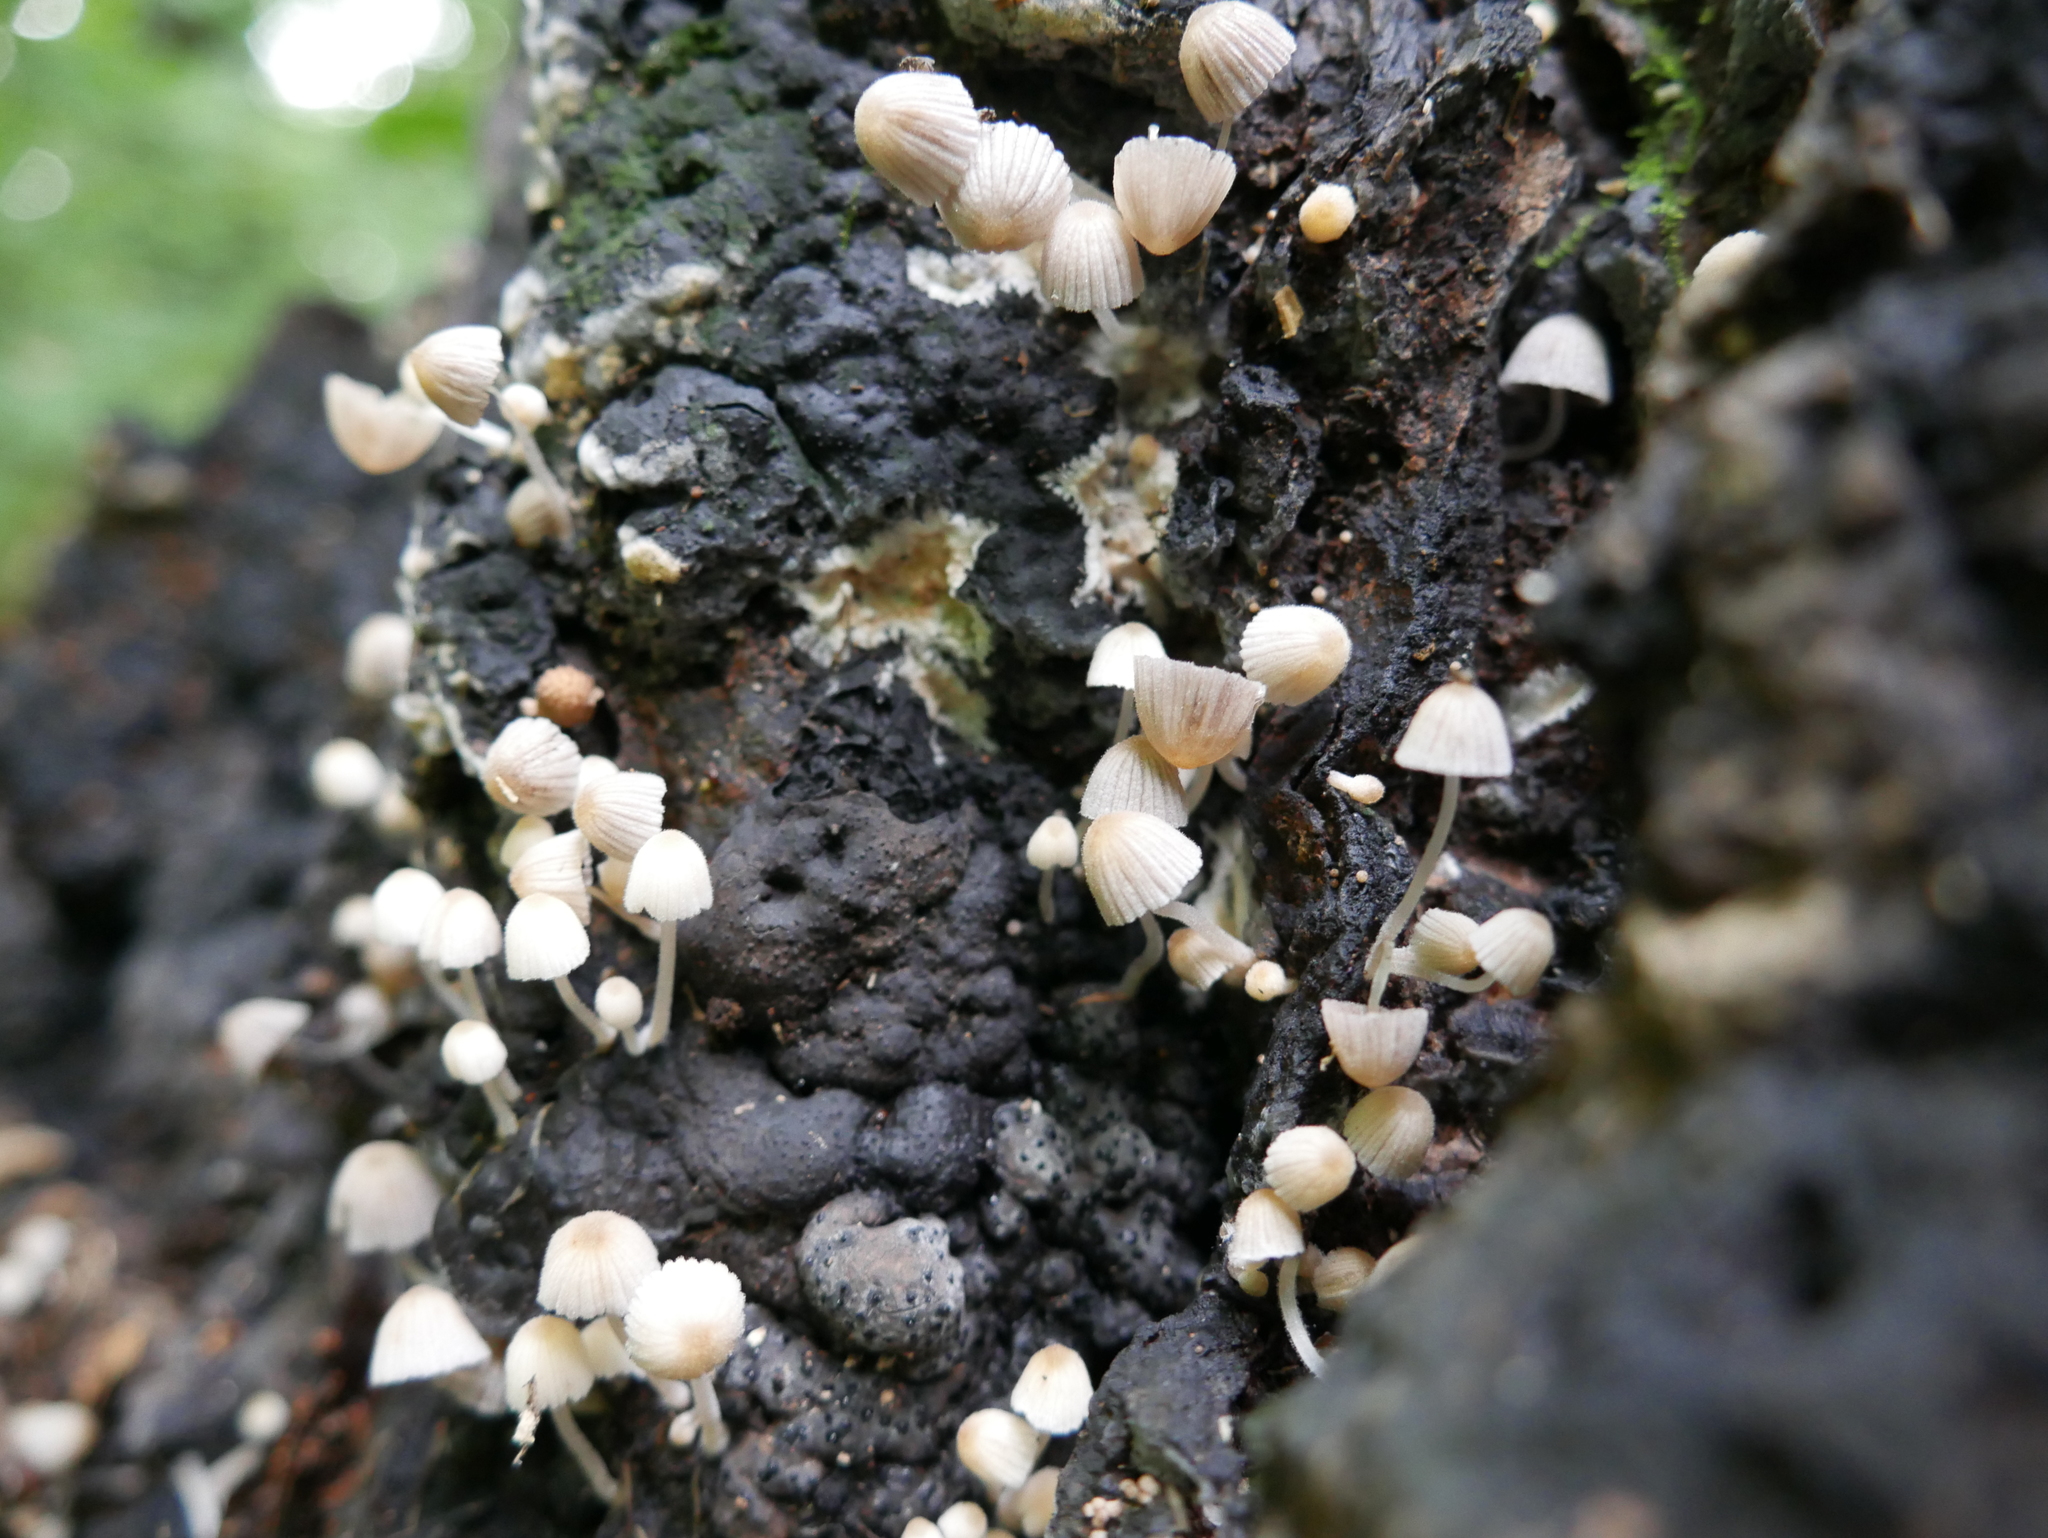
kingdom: Fungi
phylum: Basidiomycota
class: Agaricomycetes
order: Agaricales
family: Psathyrellaceae
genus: Coprinellus
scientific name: Coprinellus disseminatus
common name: Fairies' bonnets
